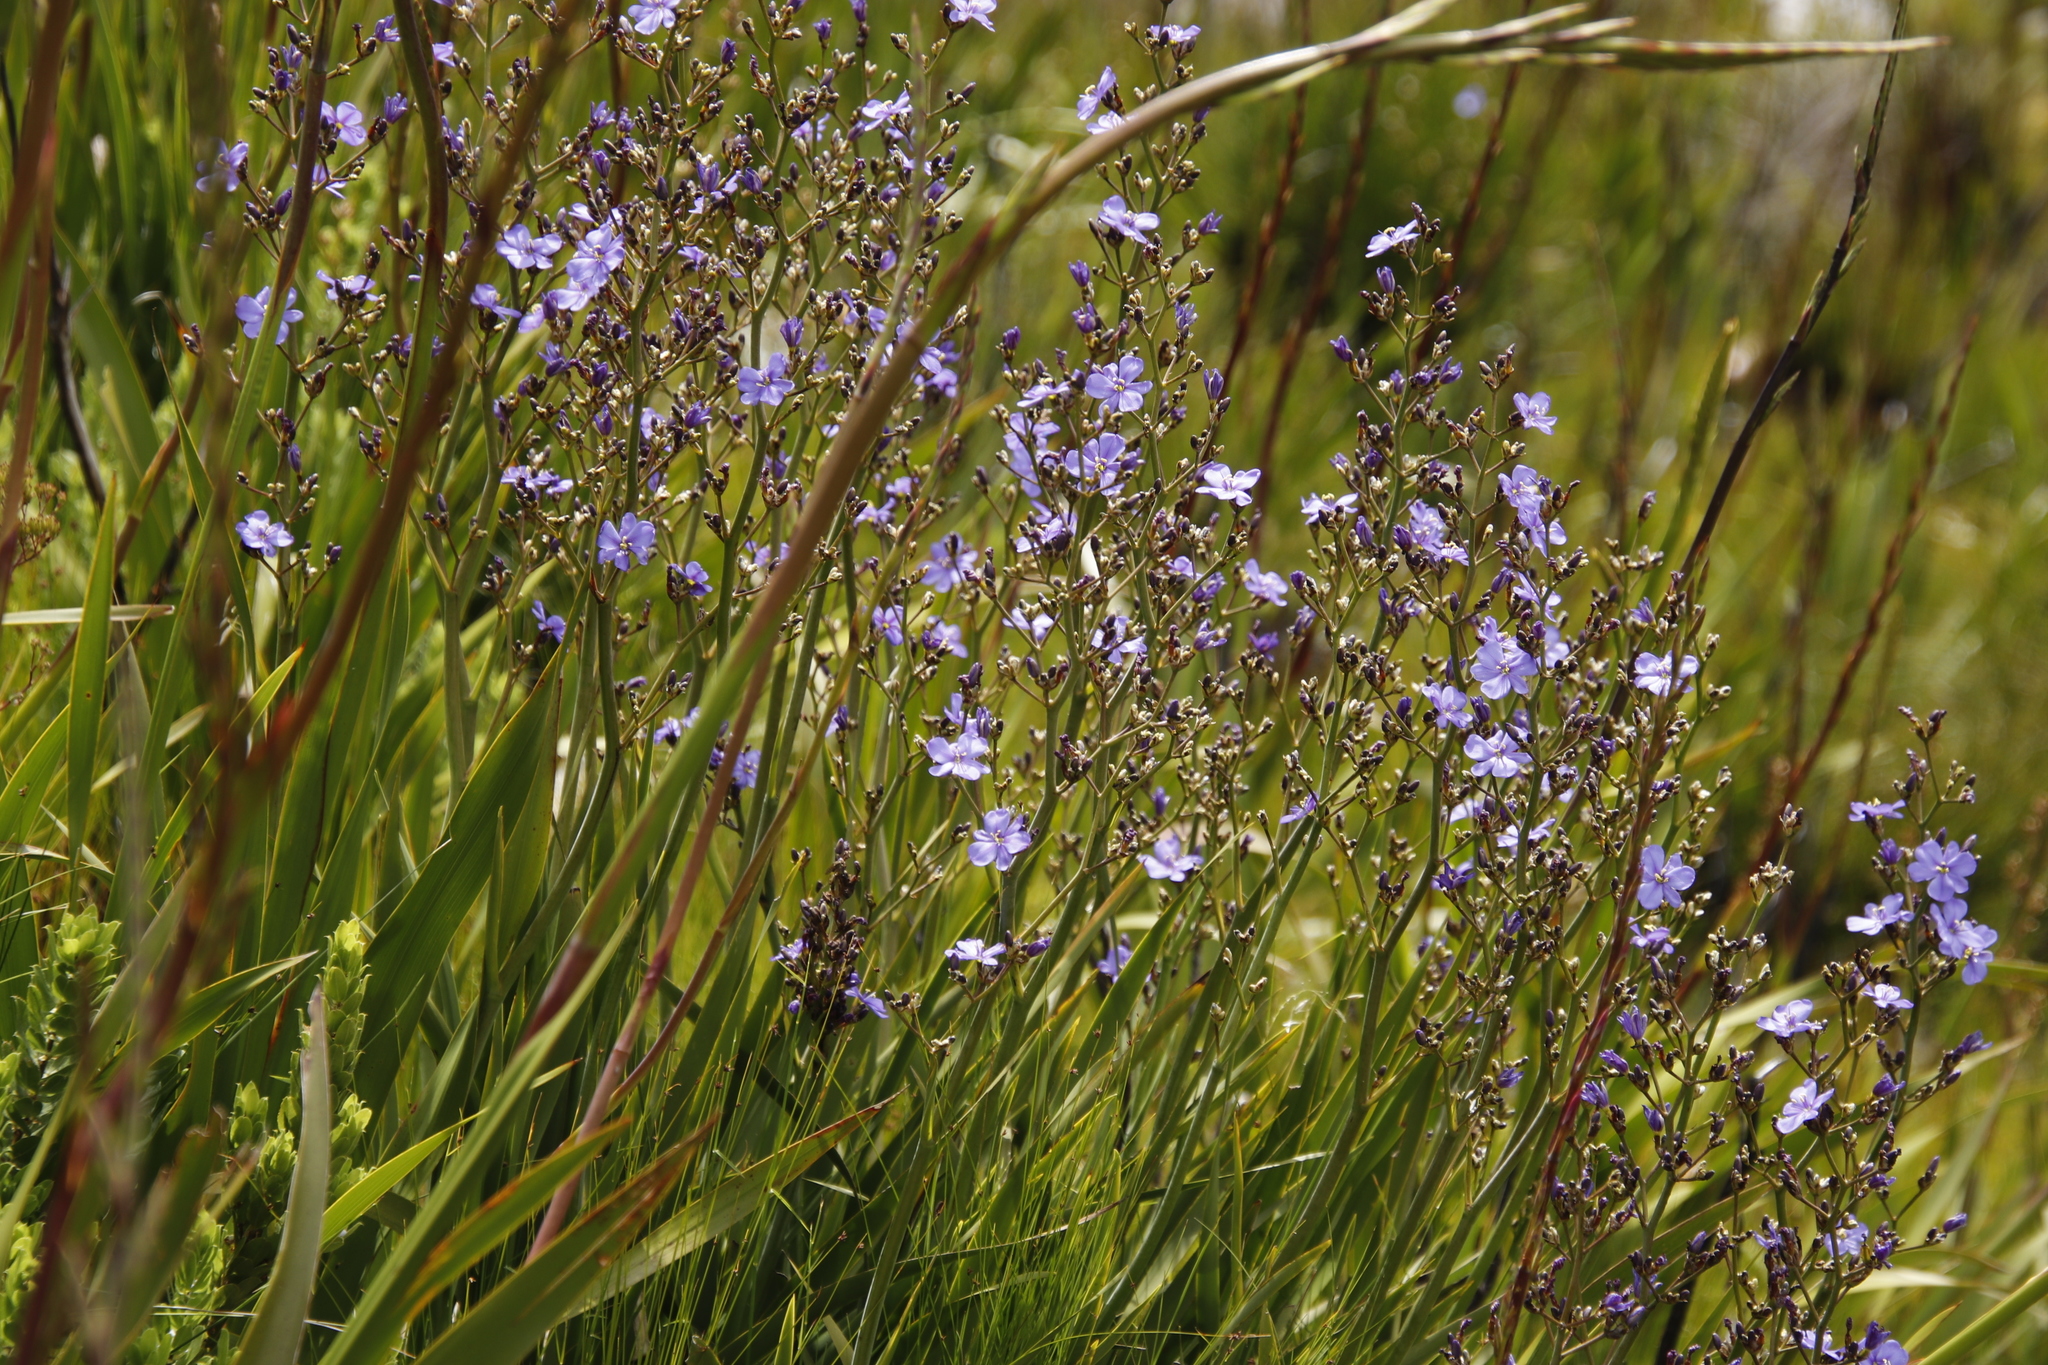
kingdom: Plantae
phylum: Tracheophyta
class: Liliopsida
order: Asparagales
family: Iridaceae
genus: Aristea
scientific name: Aristea bakeri
